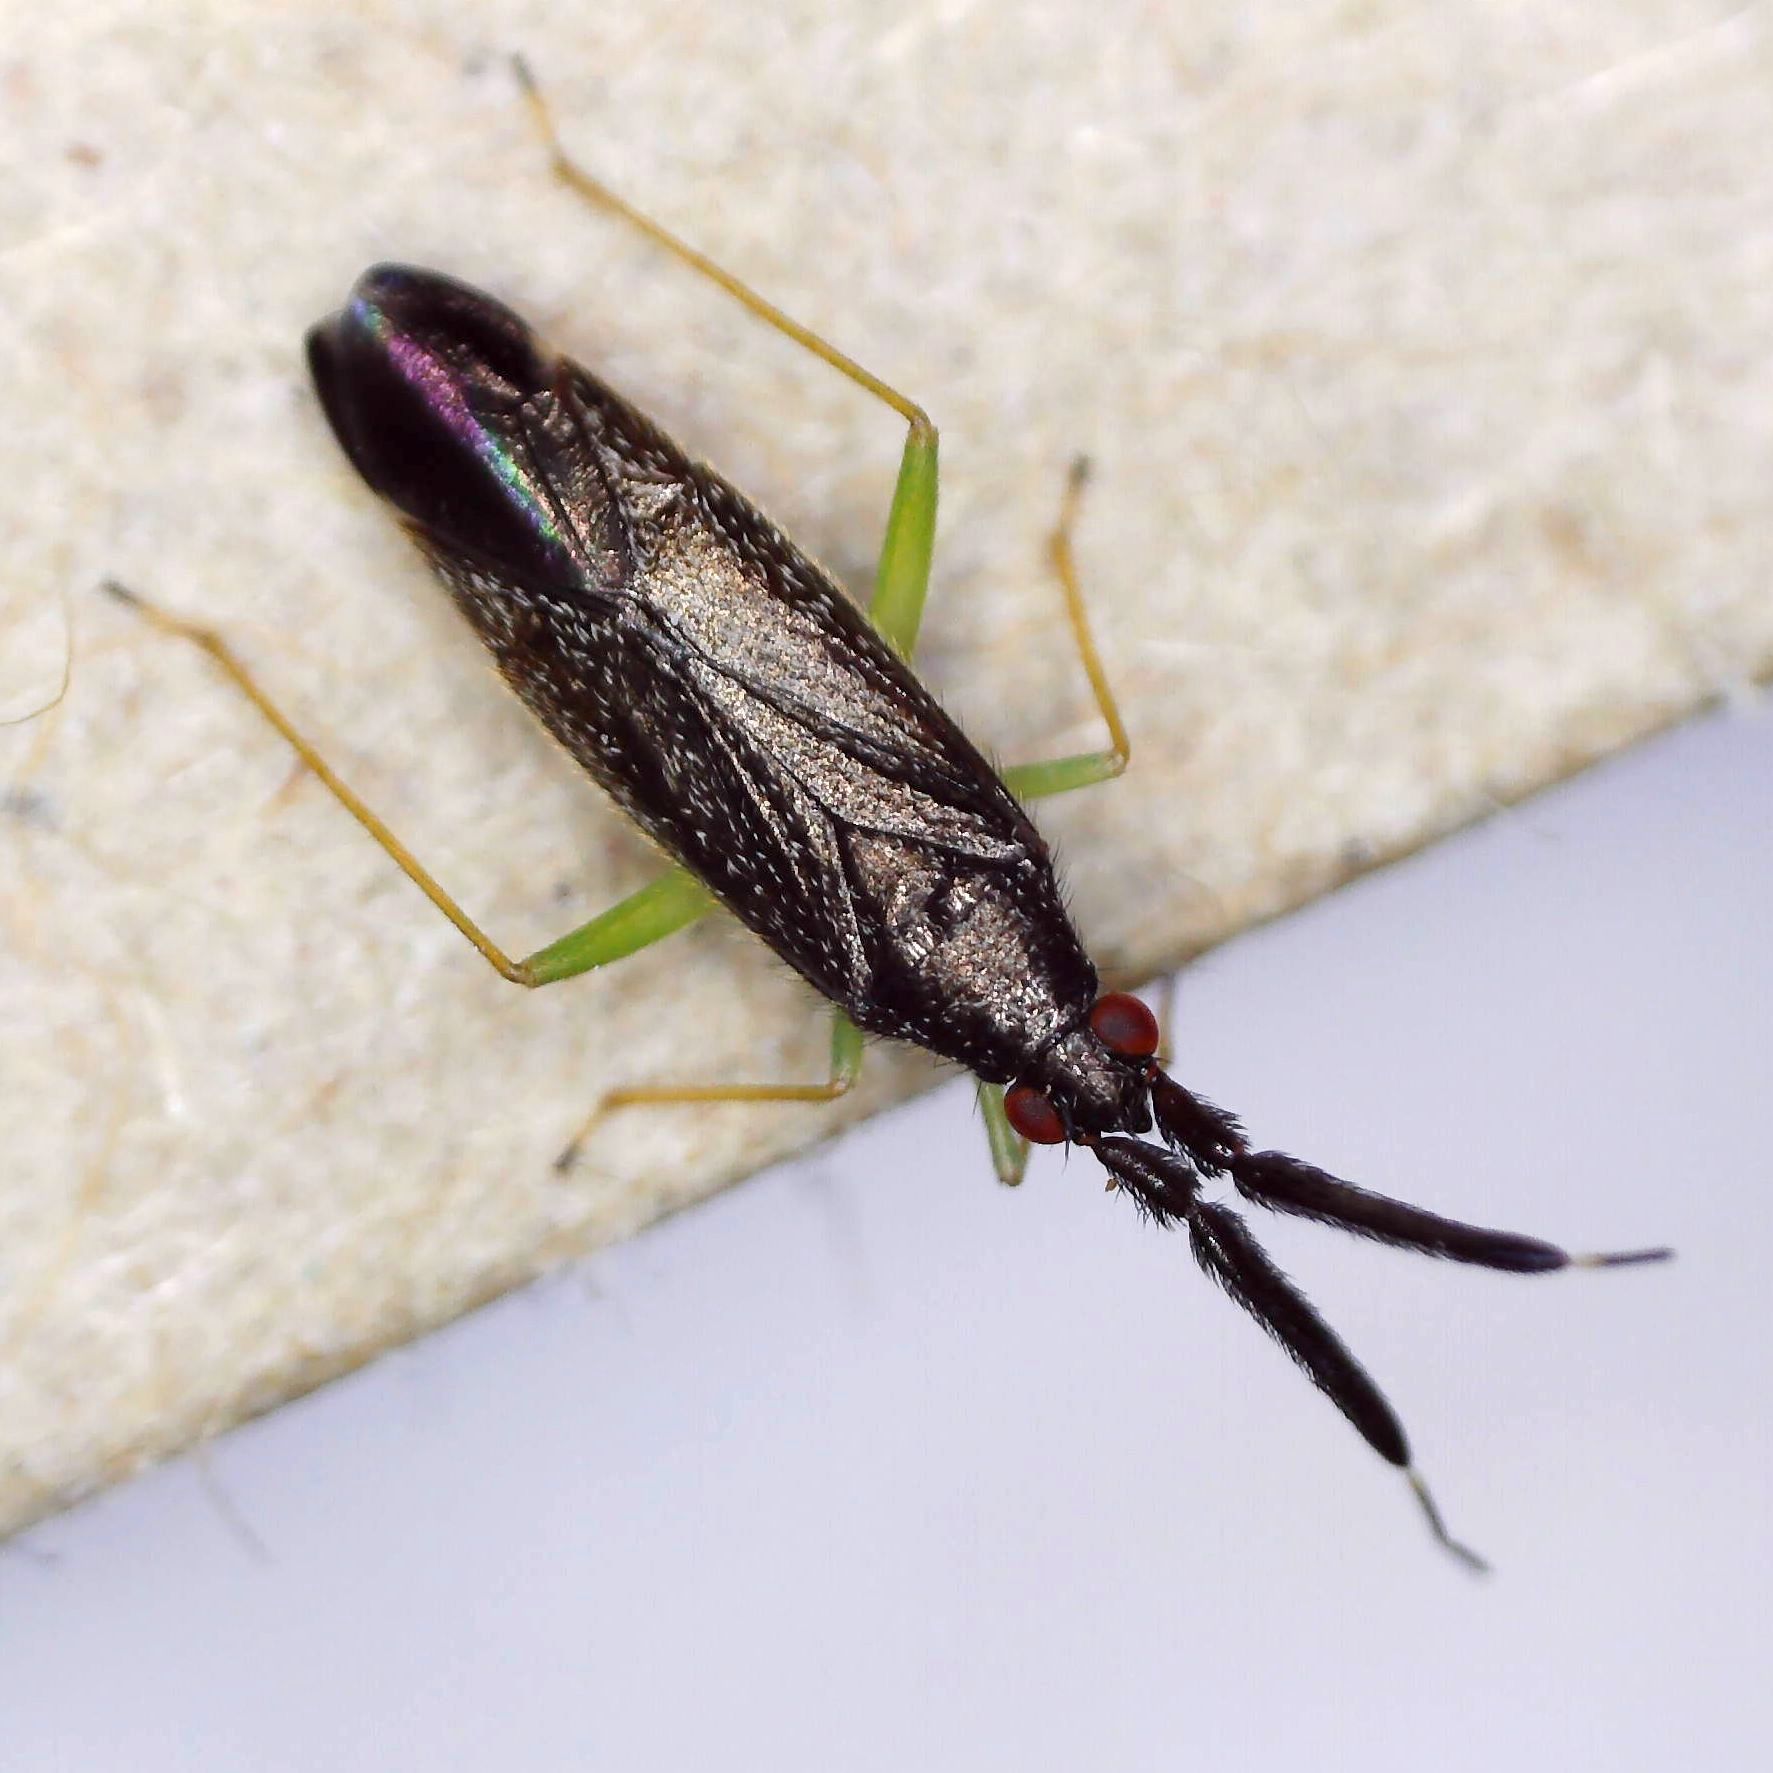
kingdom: Animalia
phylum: Arthropoda
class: Insecta
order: Hemiptera
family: Miridae
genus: Heterotoma
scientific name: Heterotoma planicornis
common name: Plant bug
